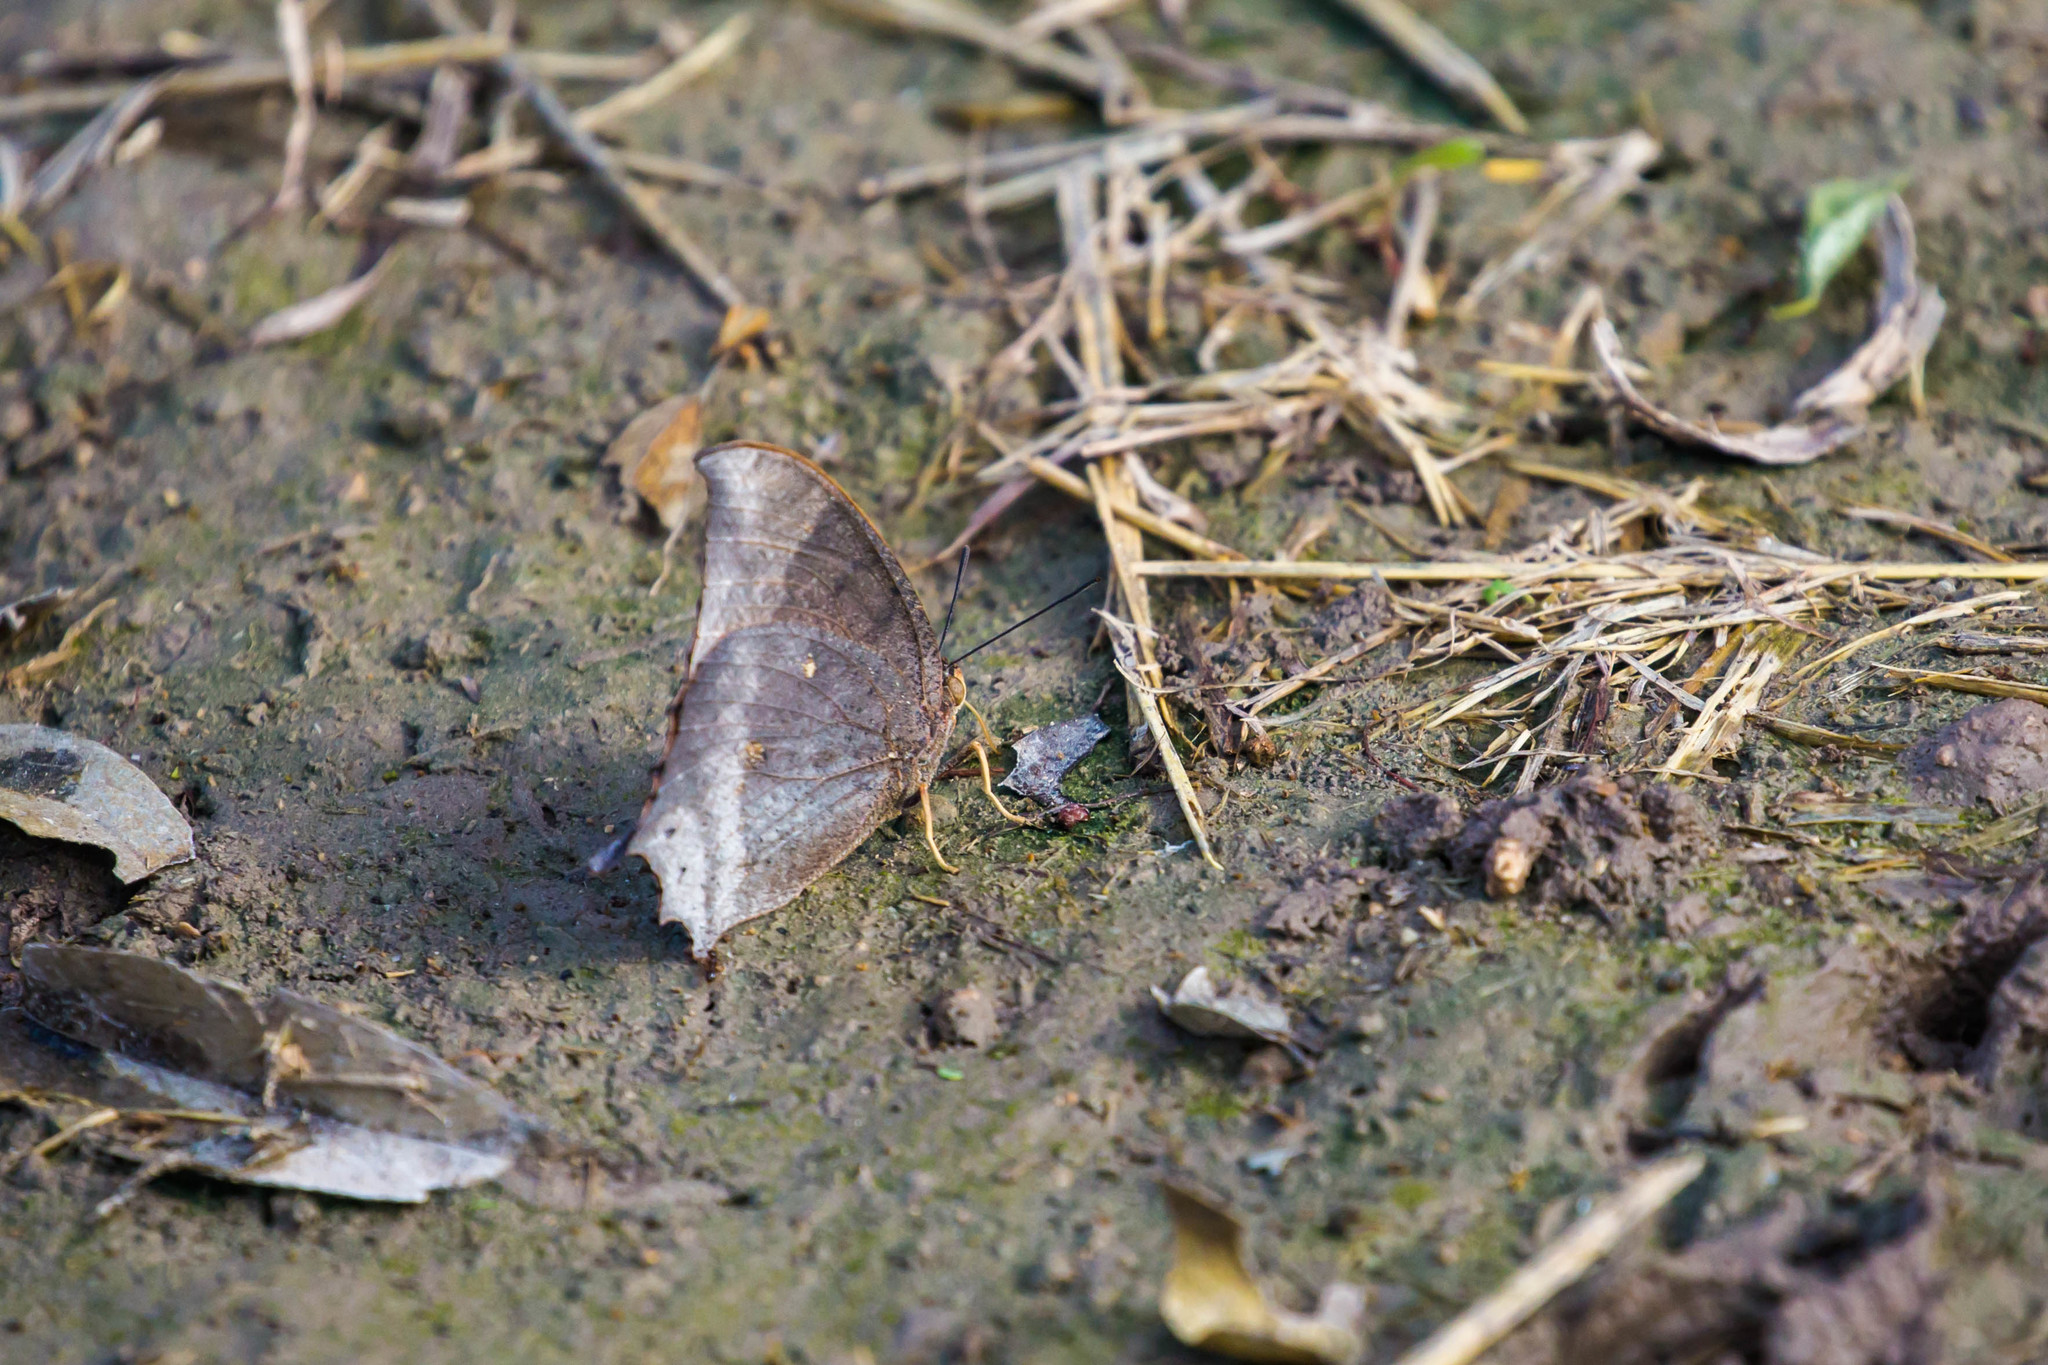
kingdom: Animalia
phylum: Arthropoda
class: Insecta
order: Lepidoptera
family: Nymphalidae
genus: Anaea
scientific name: Anaea aidea
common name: Tropical leafwing
